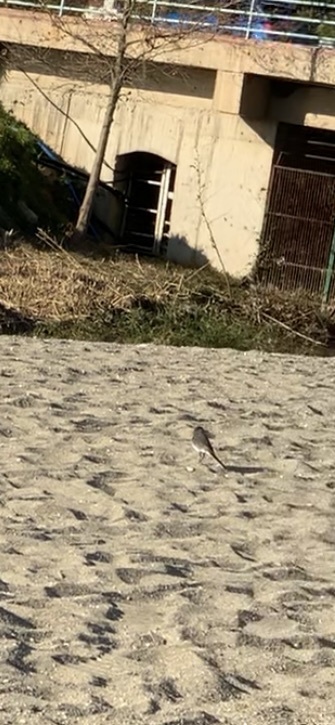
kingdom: Animalia
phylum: Chordata
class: Aves
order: Passeriformes
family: Motacillidae
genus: Motacilla
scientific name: Motacilla alba
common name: White wagtail
